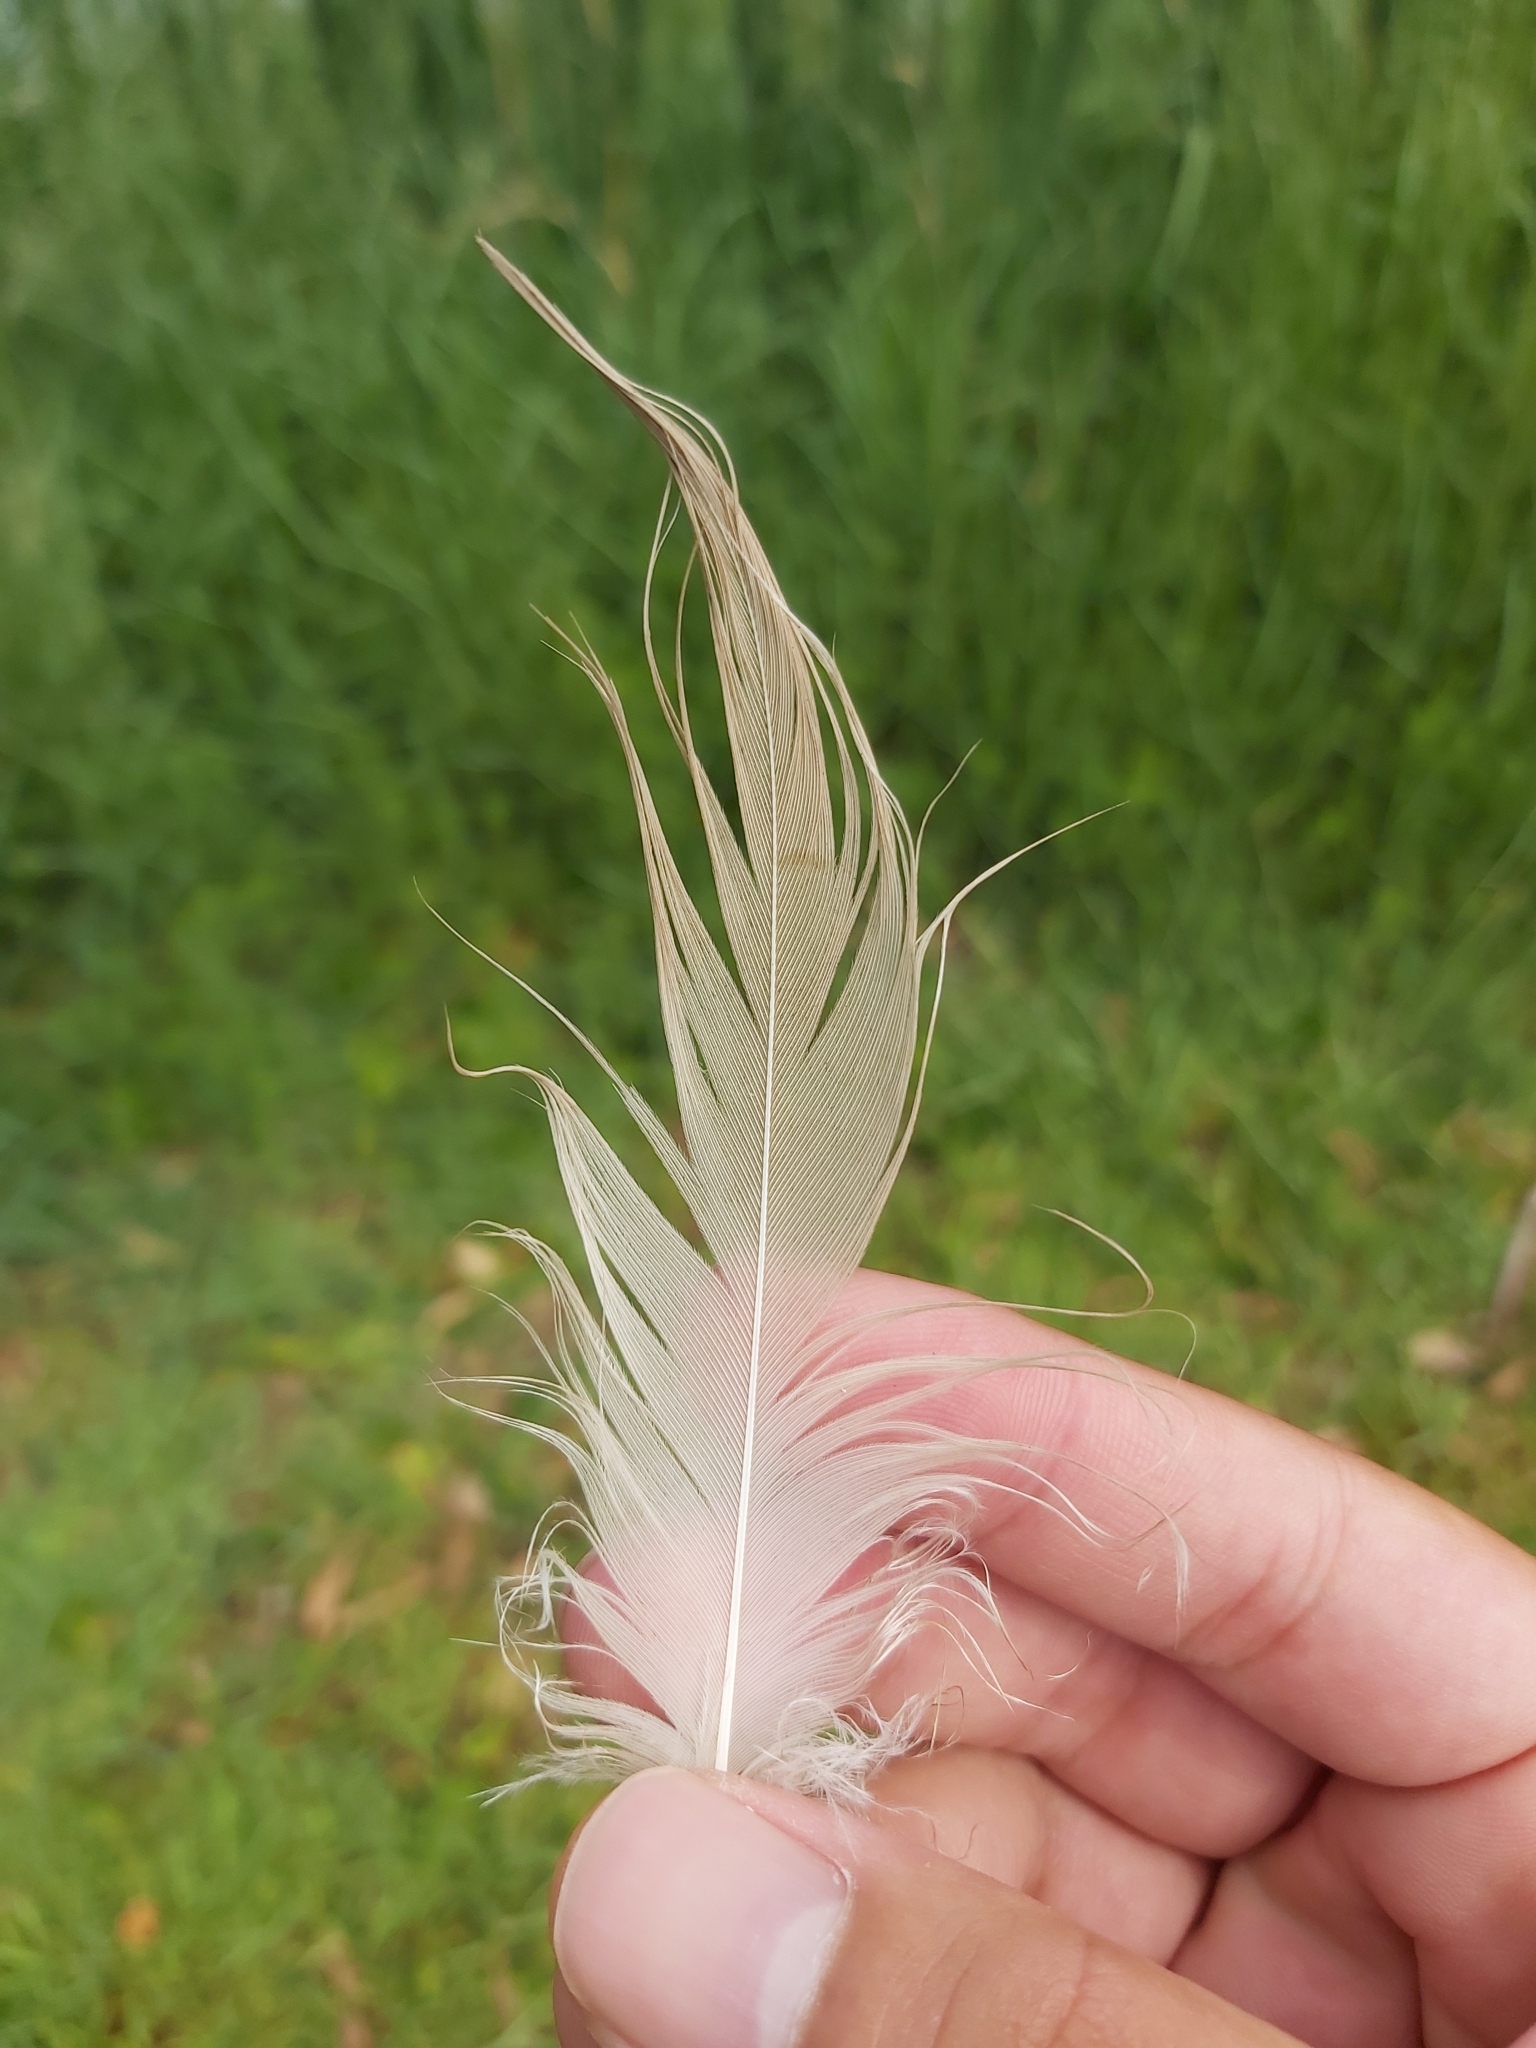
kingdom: Animalia
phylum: Chordata
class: Aves
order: Pelecaniformes
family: Threskiornithidae
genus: Threskiornis
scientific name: Threskiornis molucca
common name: Australian white ibis
